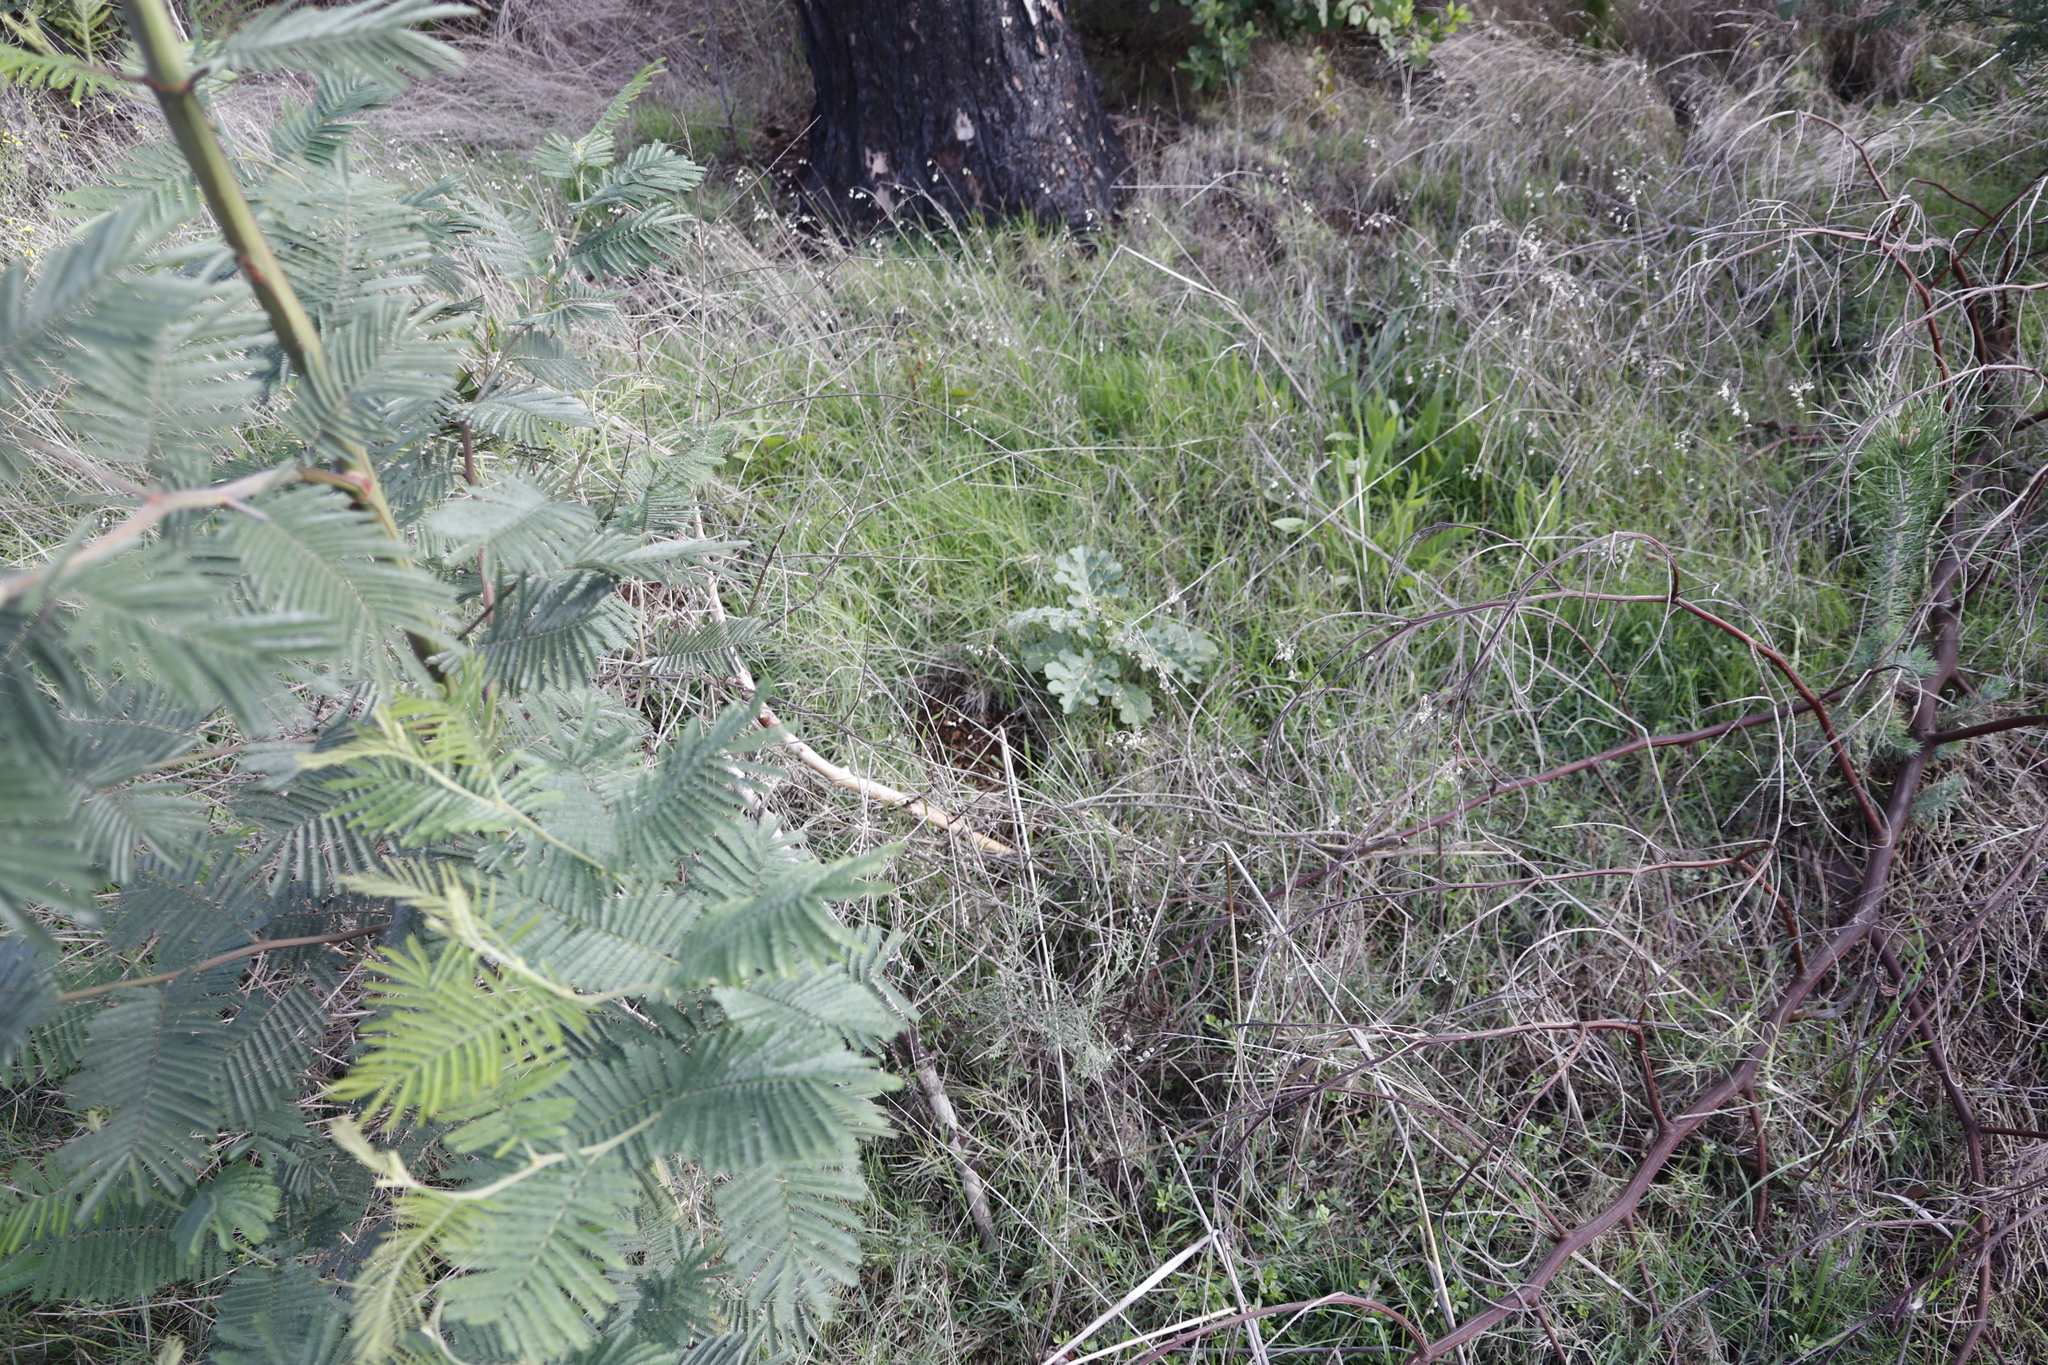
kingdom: Plantae
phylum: Tracheophyta
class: Magnoliopsida
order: Solanales
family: Solanaceae
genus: Solanum
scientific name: Solanum linnaeanum
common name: Nightshade
